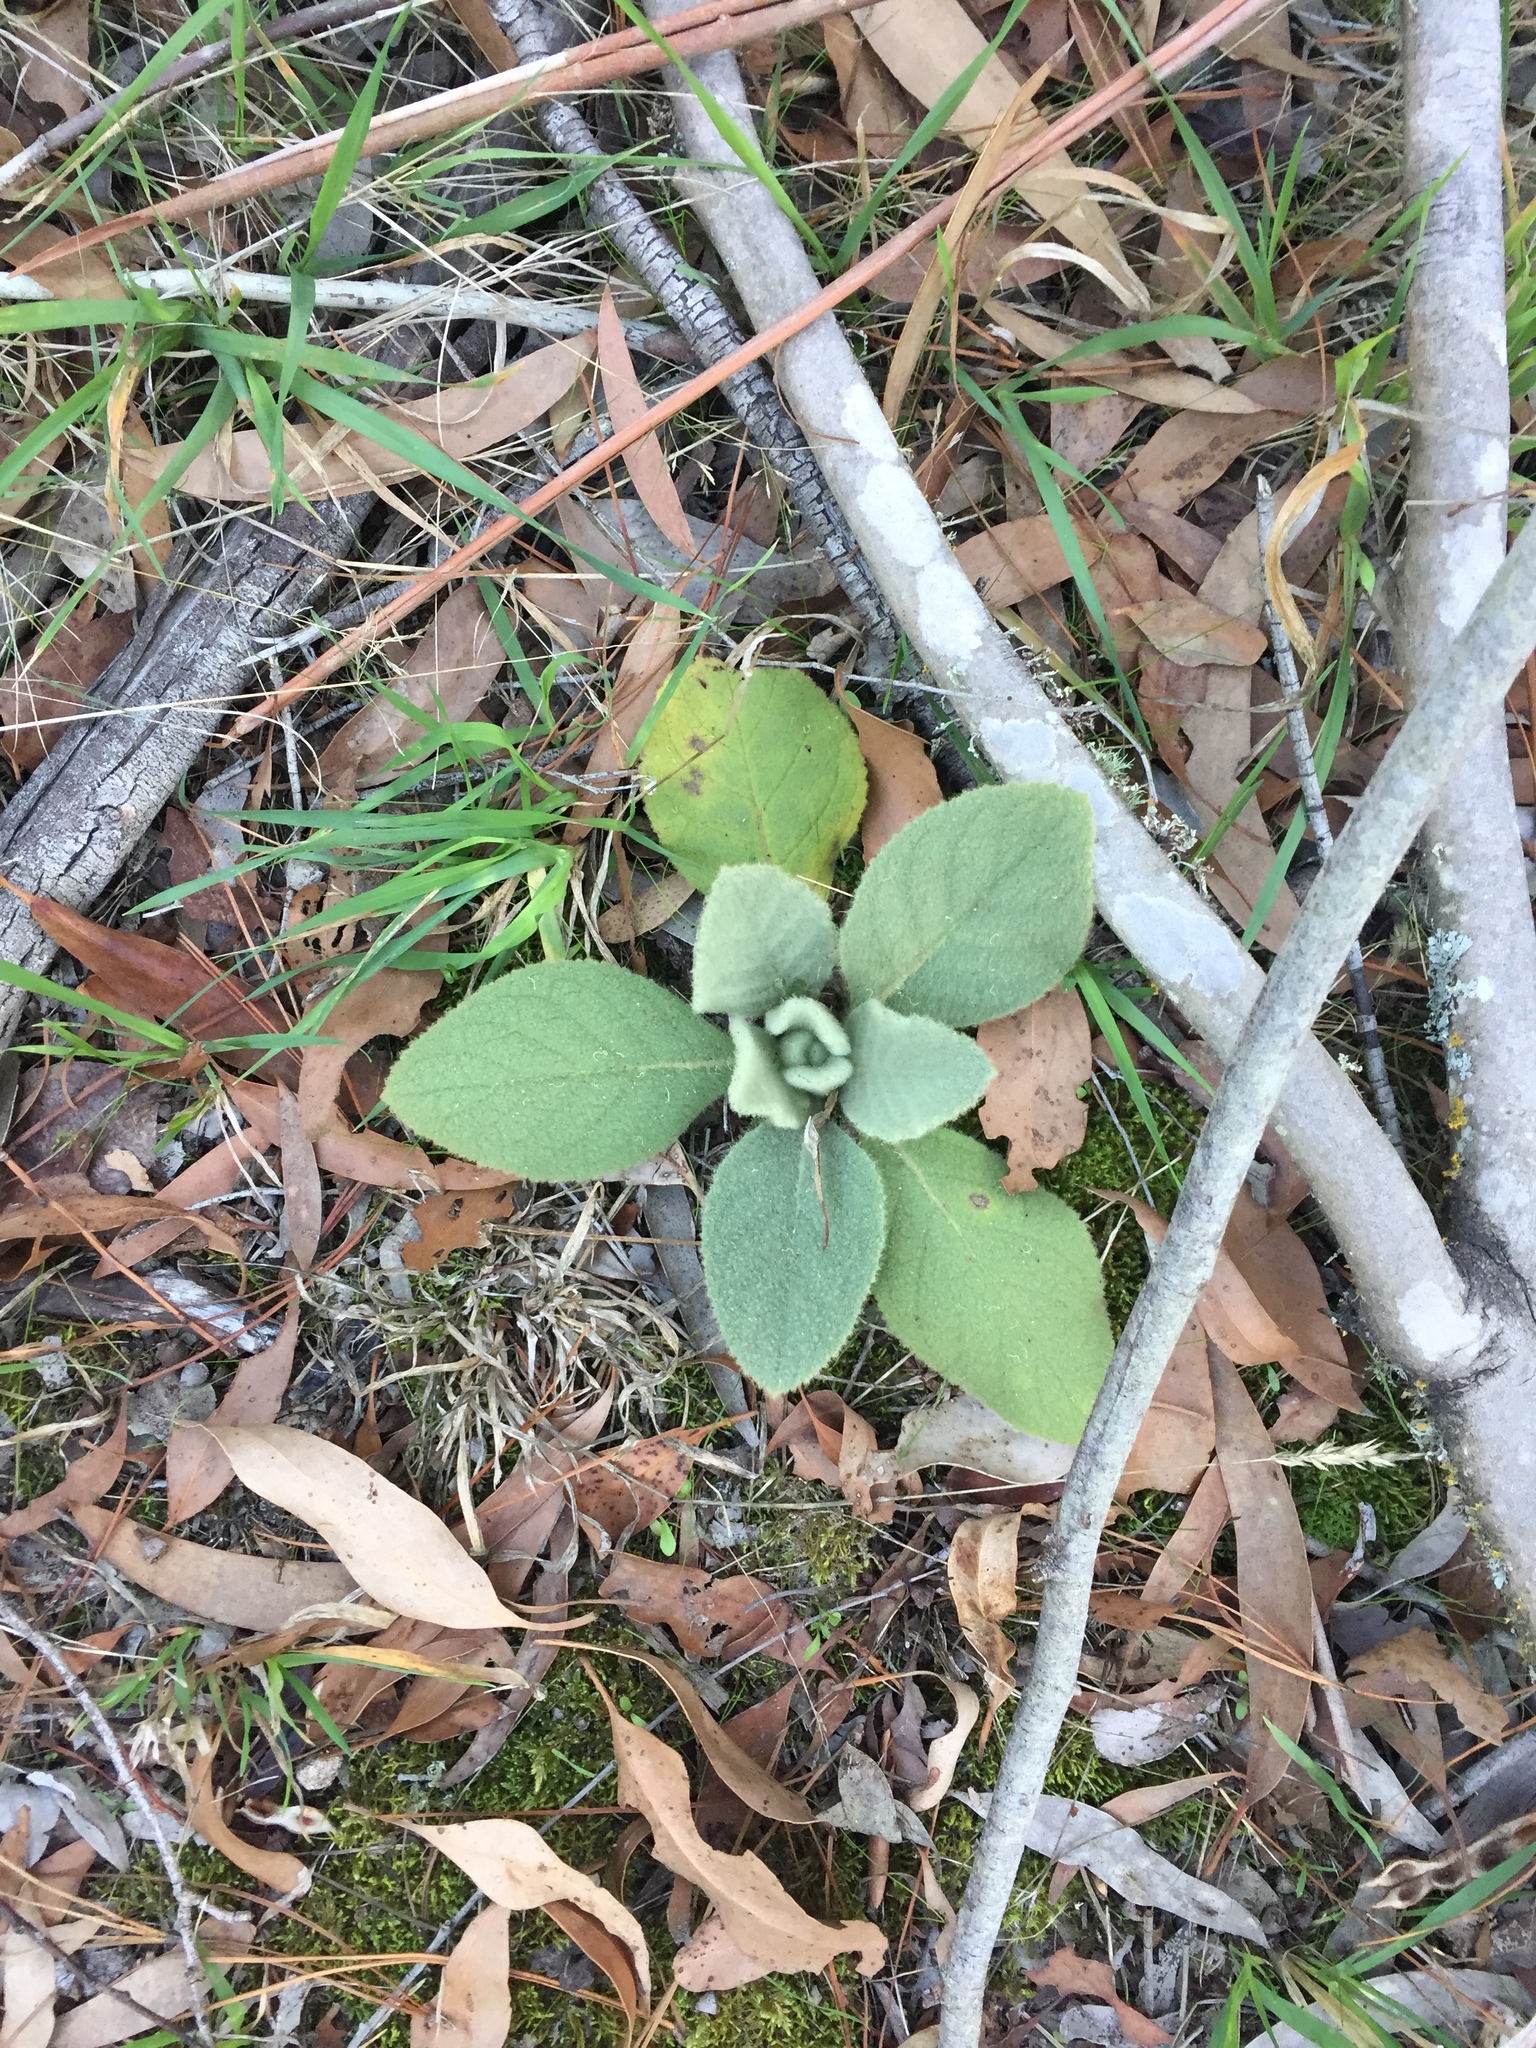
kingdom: Plantae
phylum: Tracheophyta
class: Magnoliopsida
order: Lamiales
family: Scrophulariaceae
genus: Verbascum
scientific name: Verbascum thapsus
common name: Common mullein
